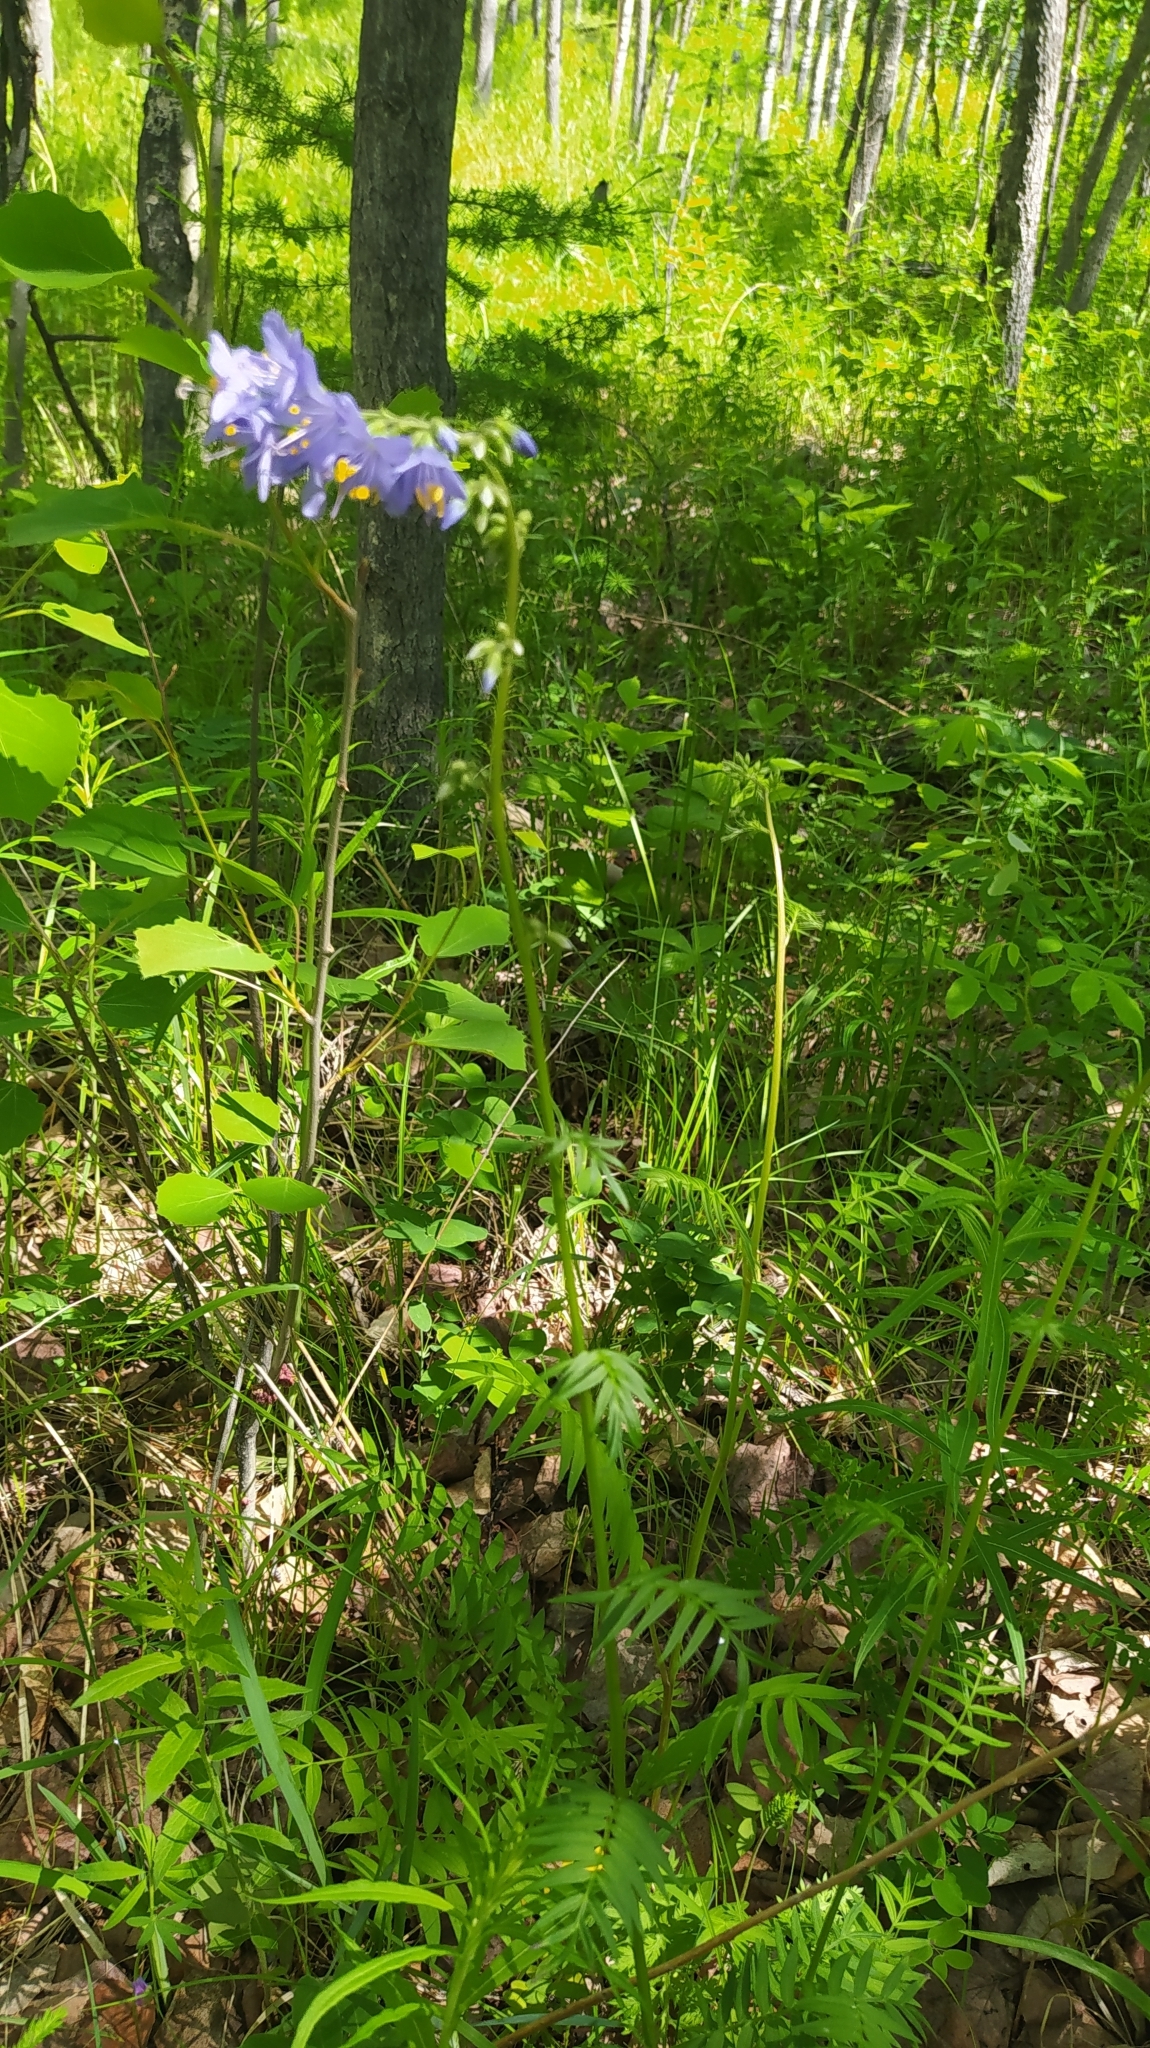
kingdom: Plantae
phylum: Tracheophyta
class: Magnoliopsida
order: Ericales
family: Polemoniaceae
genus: Polemonium
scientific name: Polemonium caeruleum
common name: Jacob's-ladder
